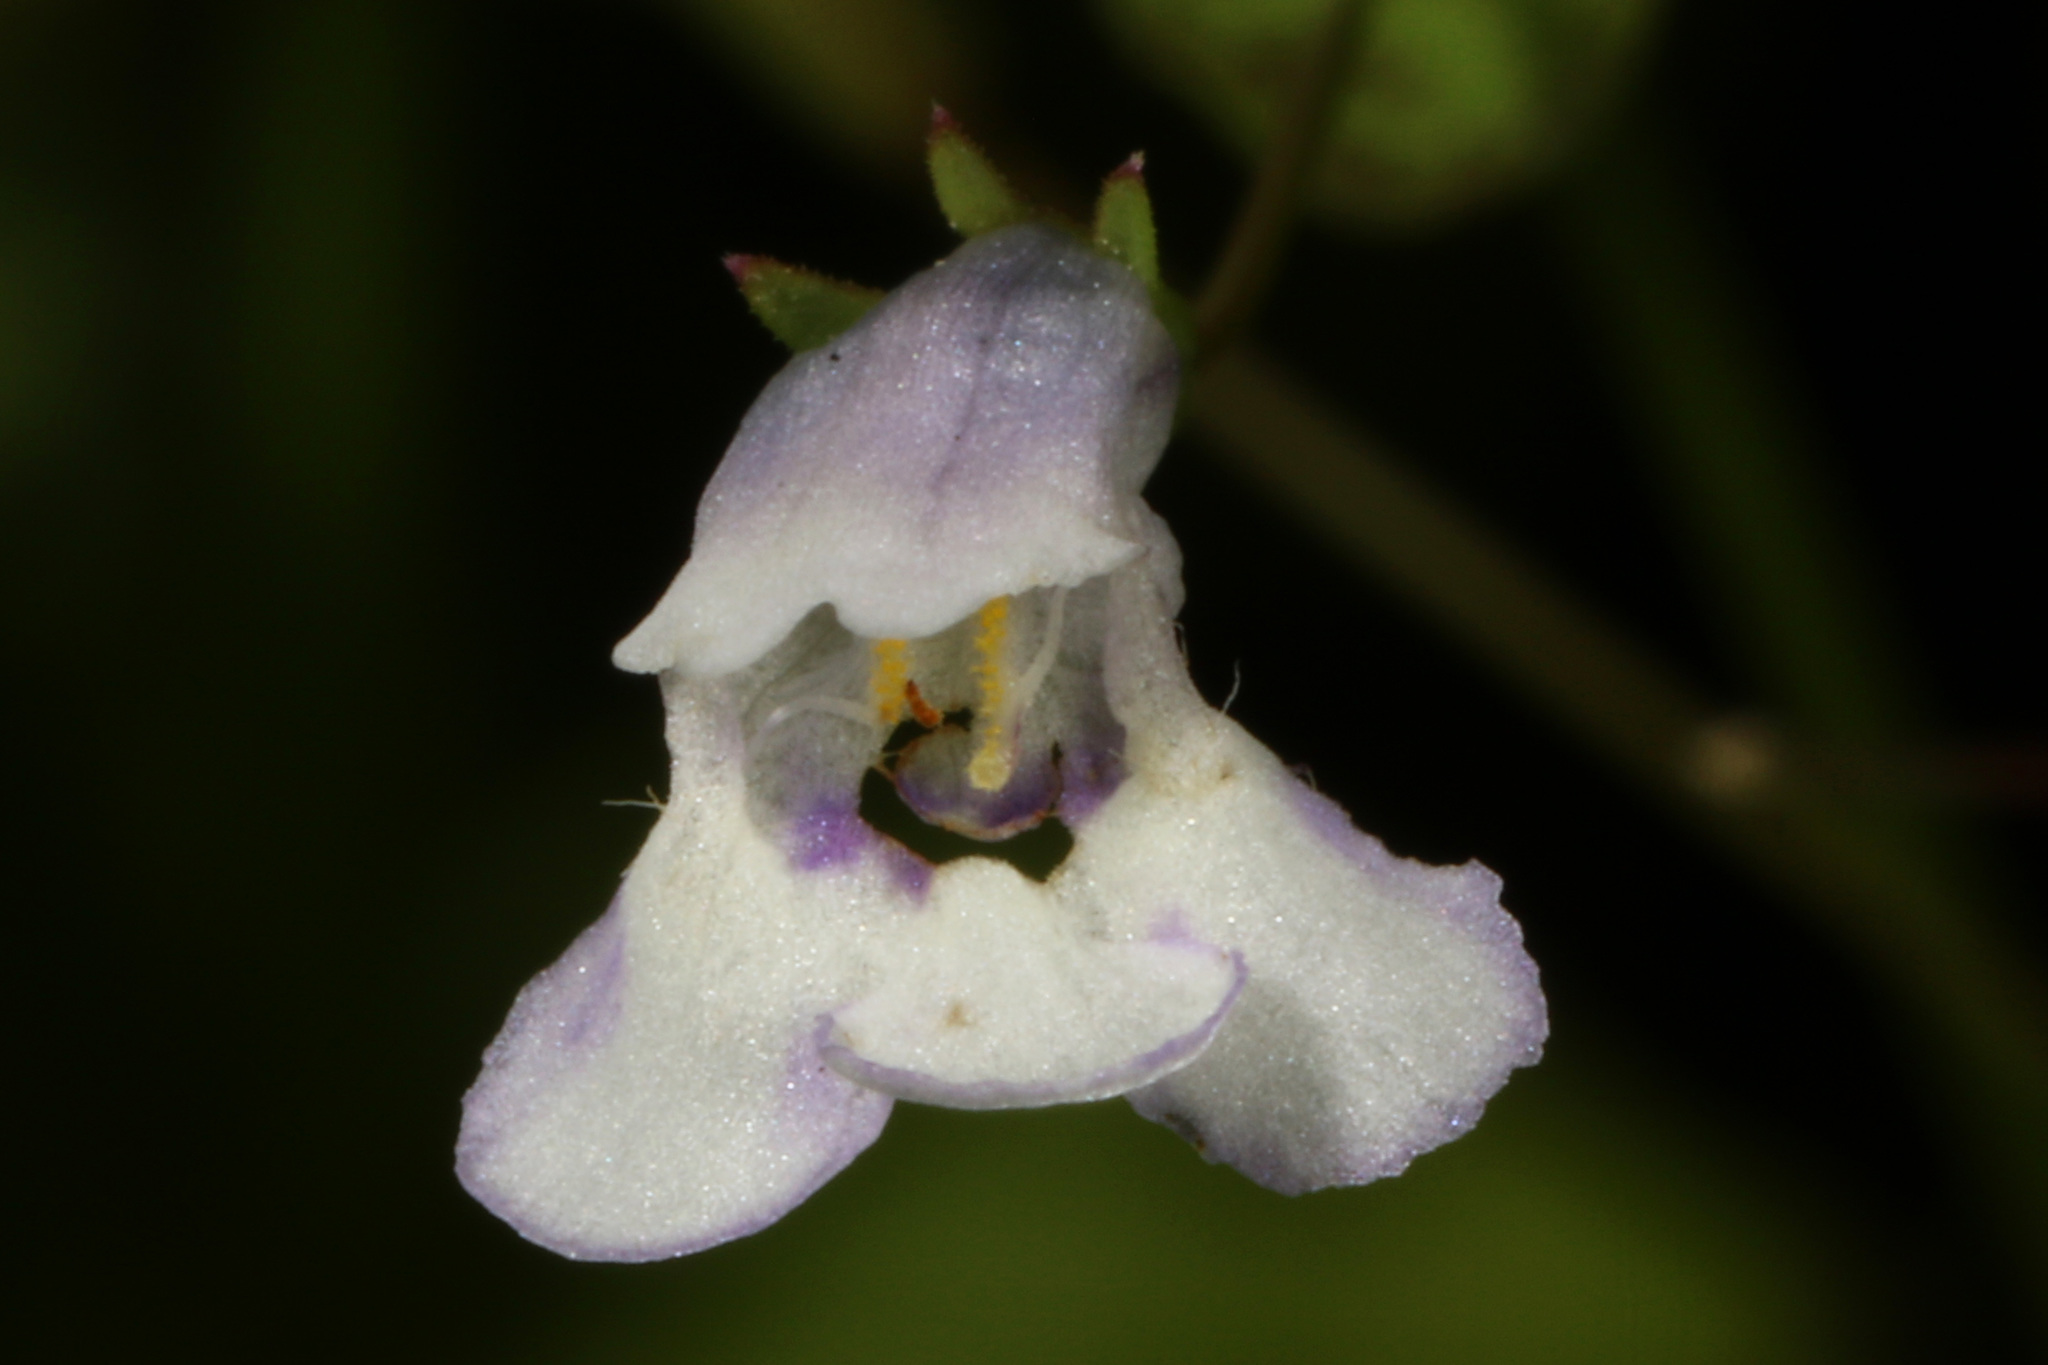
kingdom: Plantae
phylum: Tracheophyta
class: Magnoliopsida
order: Lamiales
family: Linderniaceae
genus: Lindernia
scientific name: Lindernia dubia
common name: Annual false pimpernel
